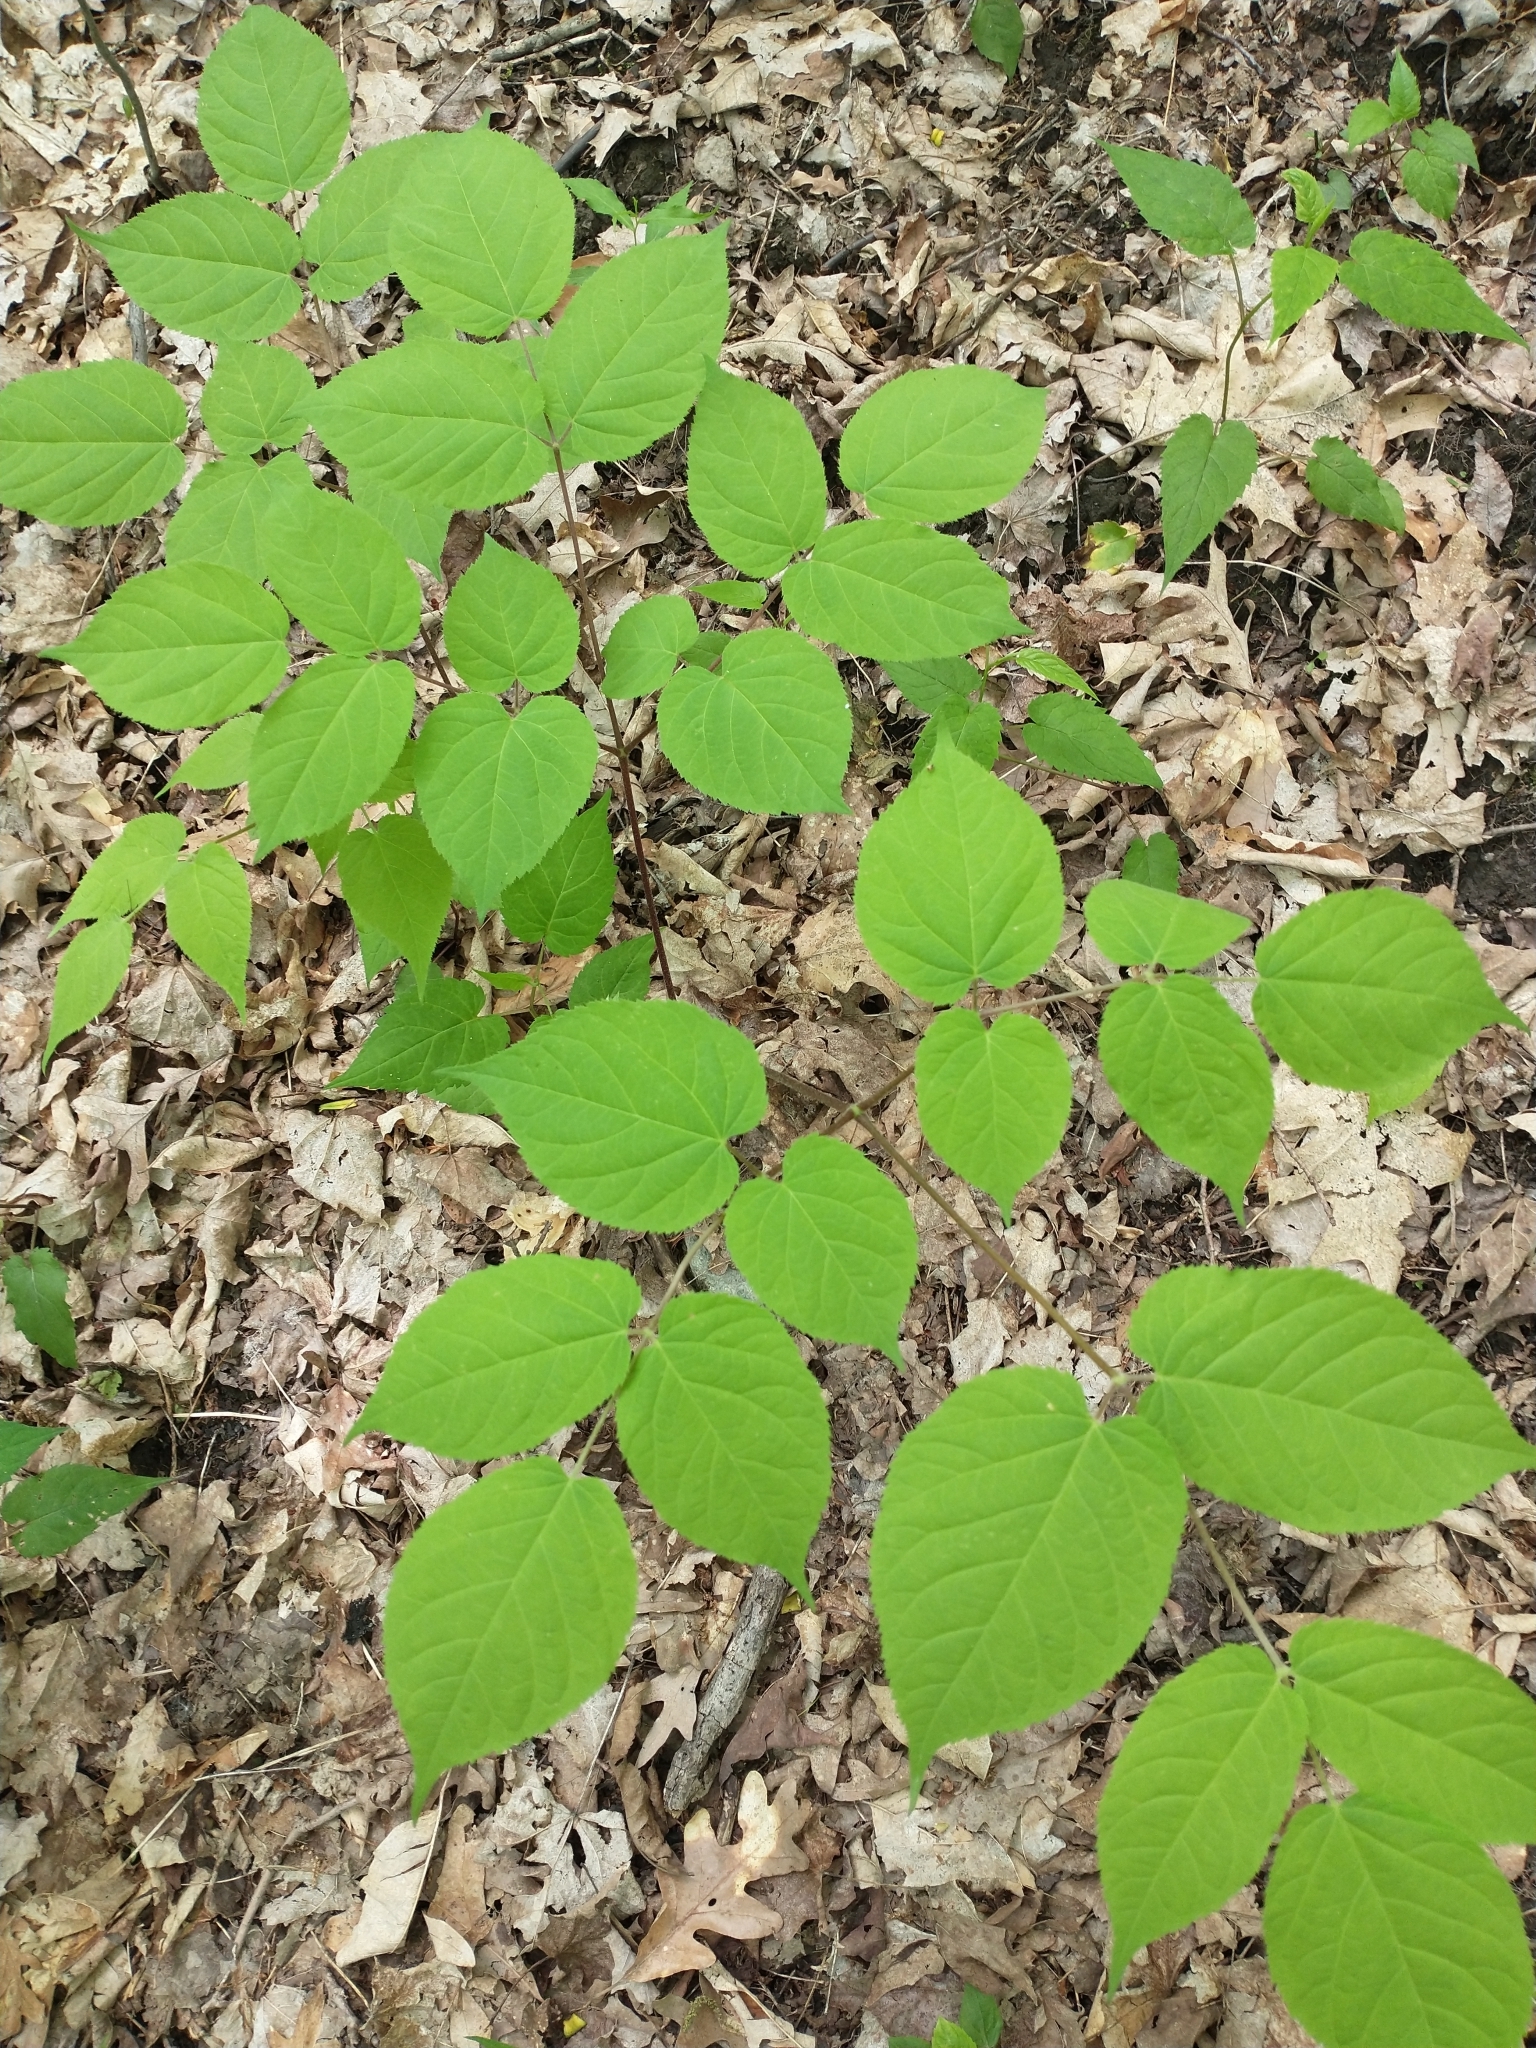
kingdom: Plantae
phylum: Tracheophyta
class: Magnoliopsida
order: Apiales
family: Araliaceae
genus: Aralia
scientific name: Aralia racemosa
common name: American-spikenard
